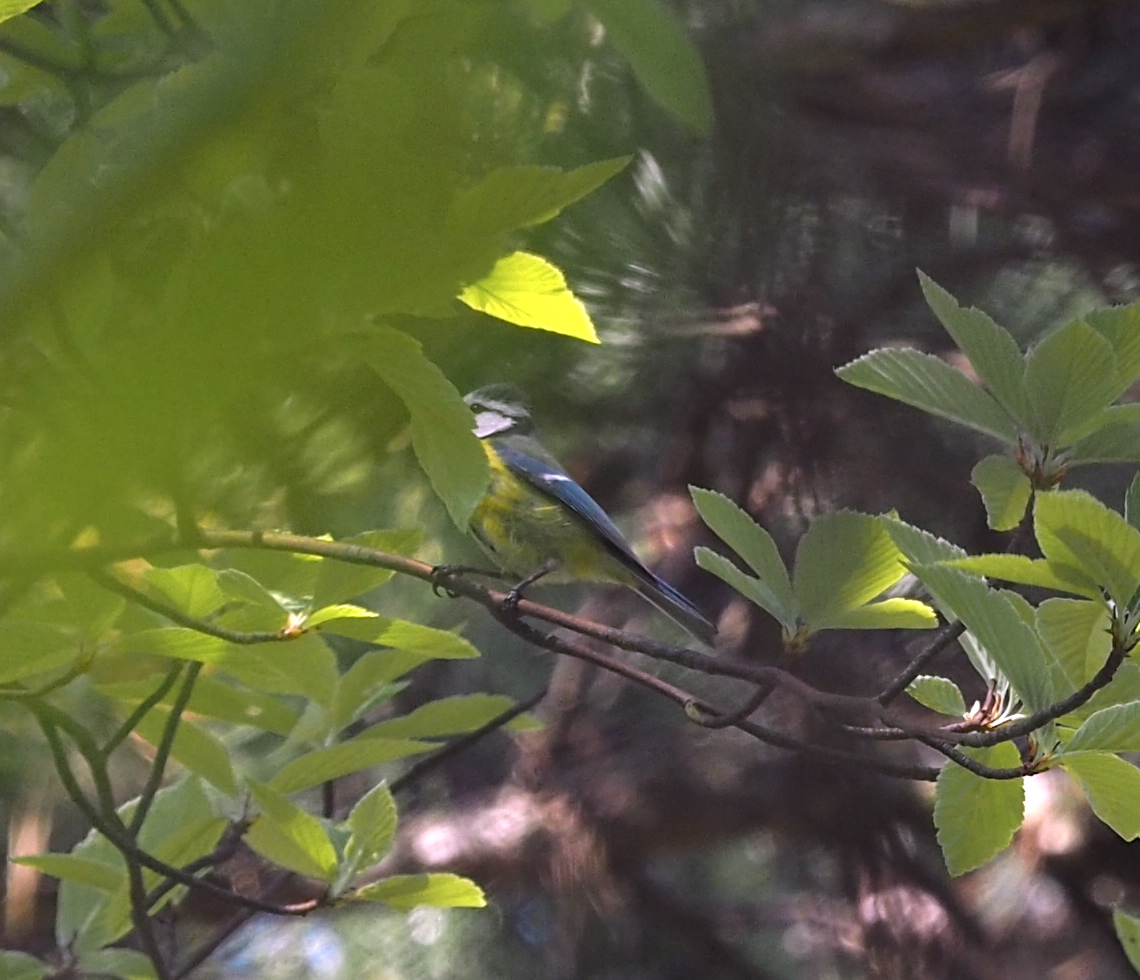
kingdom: Animalia
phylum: Chordata
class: Aves
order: Passeriformes
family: Paridae
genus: Cyanistes
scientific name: Cyanistes caeruleus
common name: Eurasian blue tit
